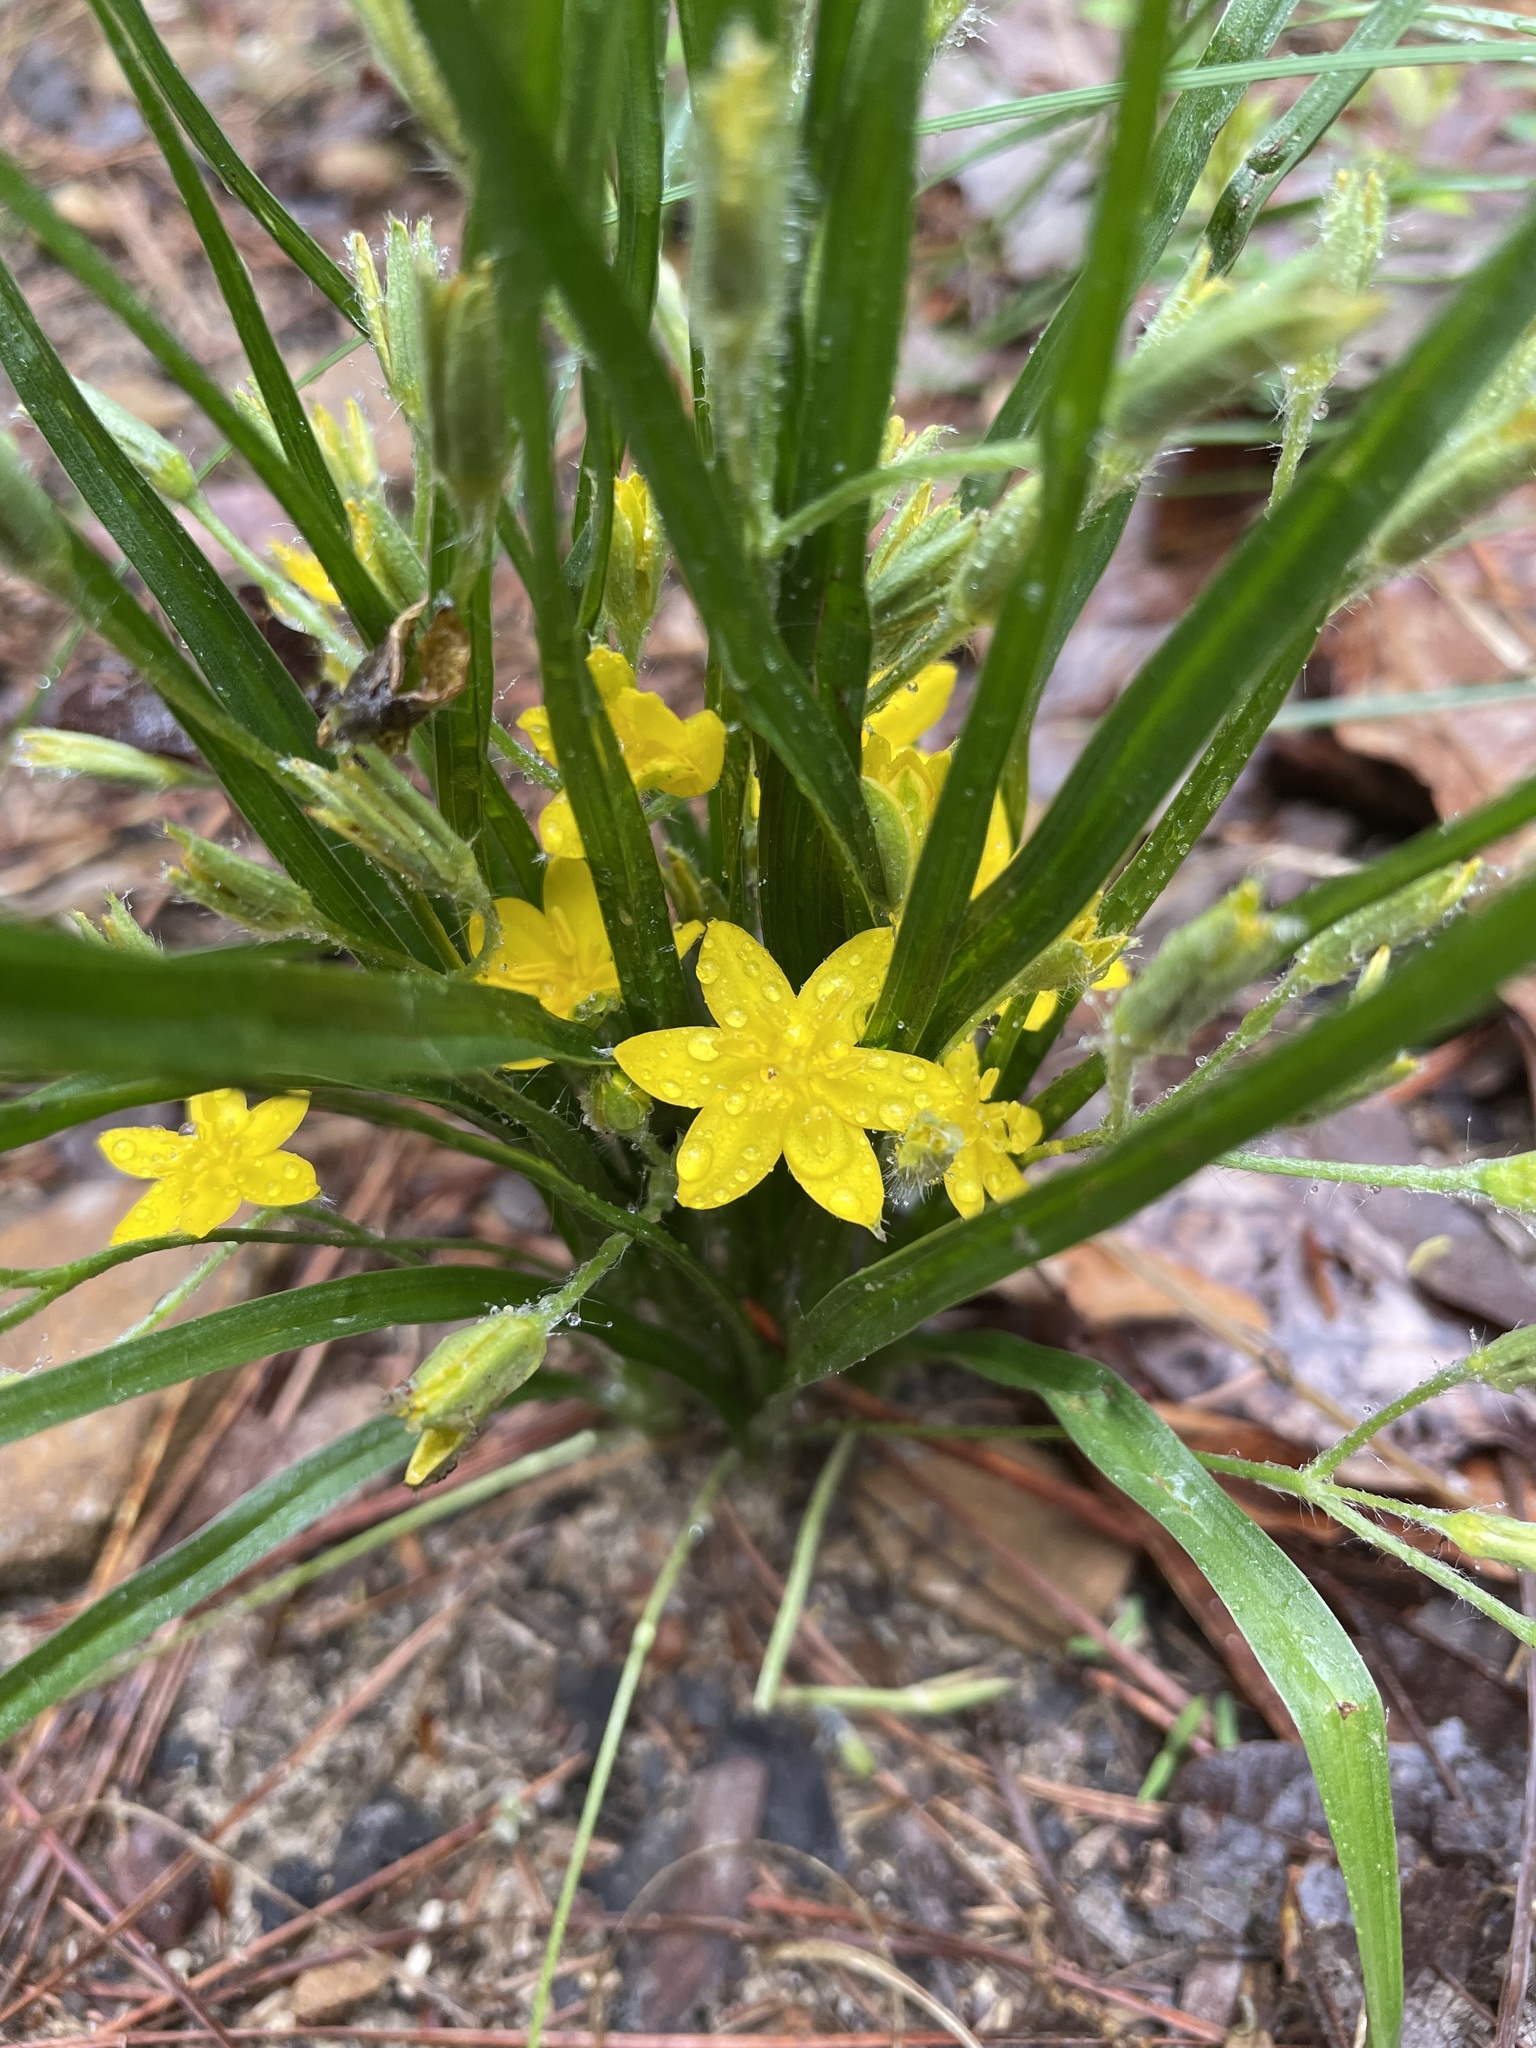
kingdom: Plantae
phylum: Tracheophyta
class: Liliopsida
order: Asparagales
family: Hypoxidaceae
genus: Hypoxis
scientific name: Hypoxis hirsuta
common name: Common goldstar
